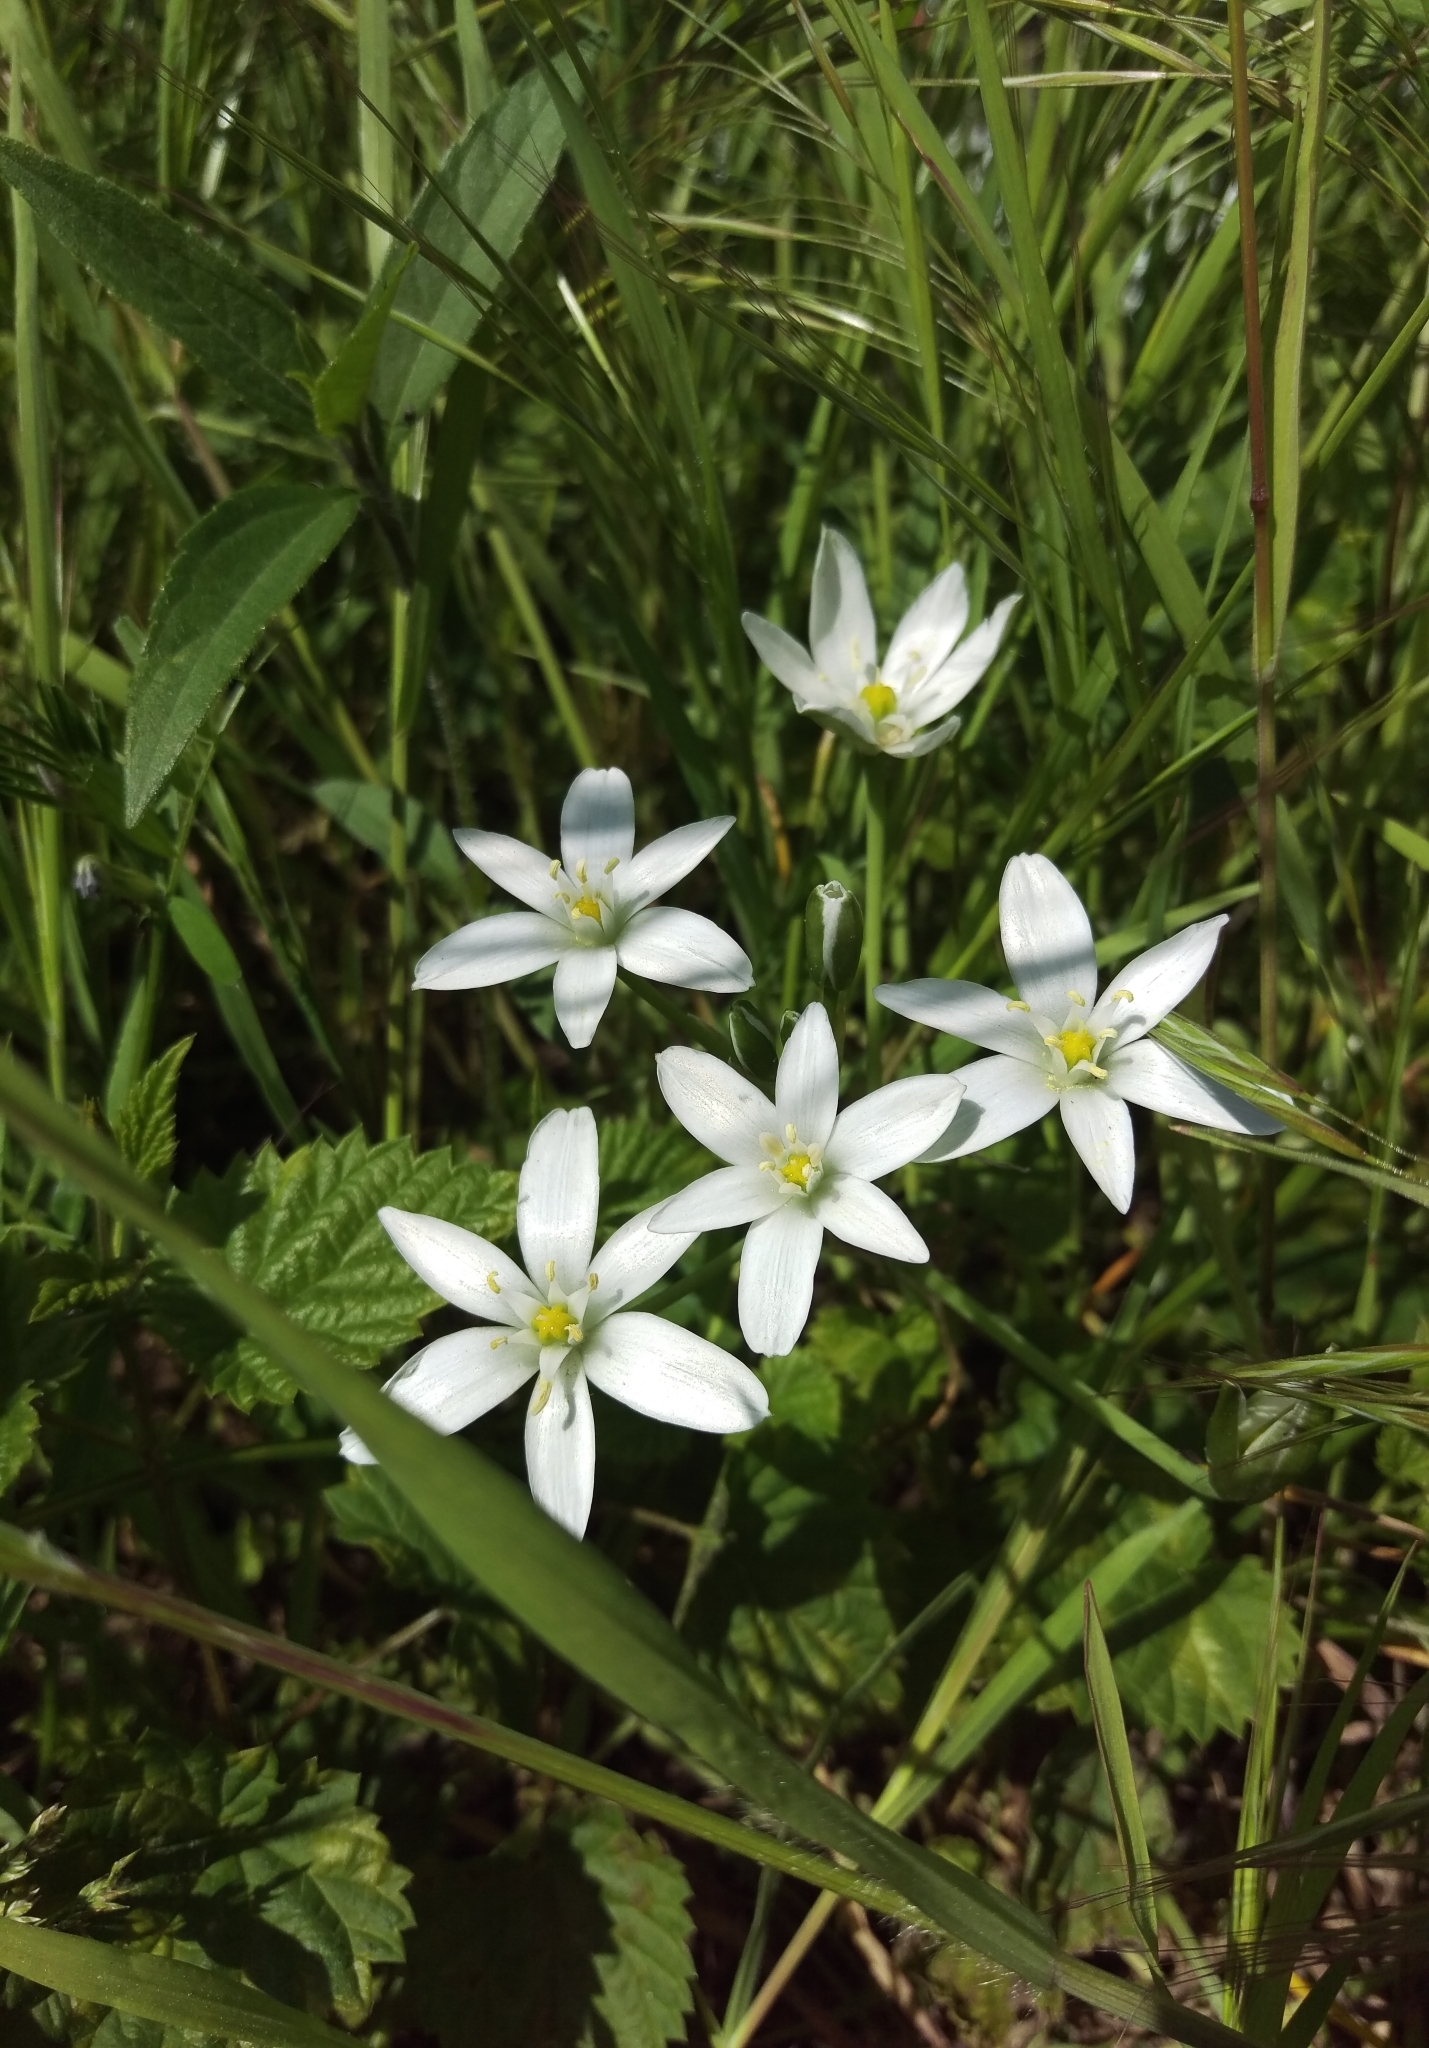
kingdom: Plantae
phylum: Tracheophyta
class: Liliopsida
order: Asparagales
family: Asparagaceae
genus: Ornithogalum
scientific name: Ornithogalum umbellatum
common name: Garden star-of-bethlehem
